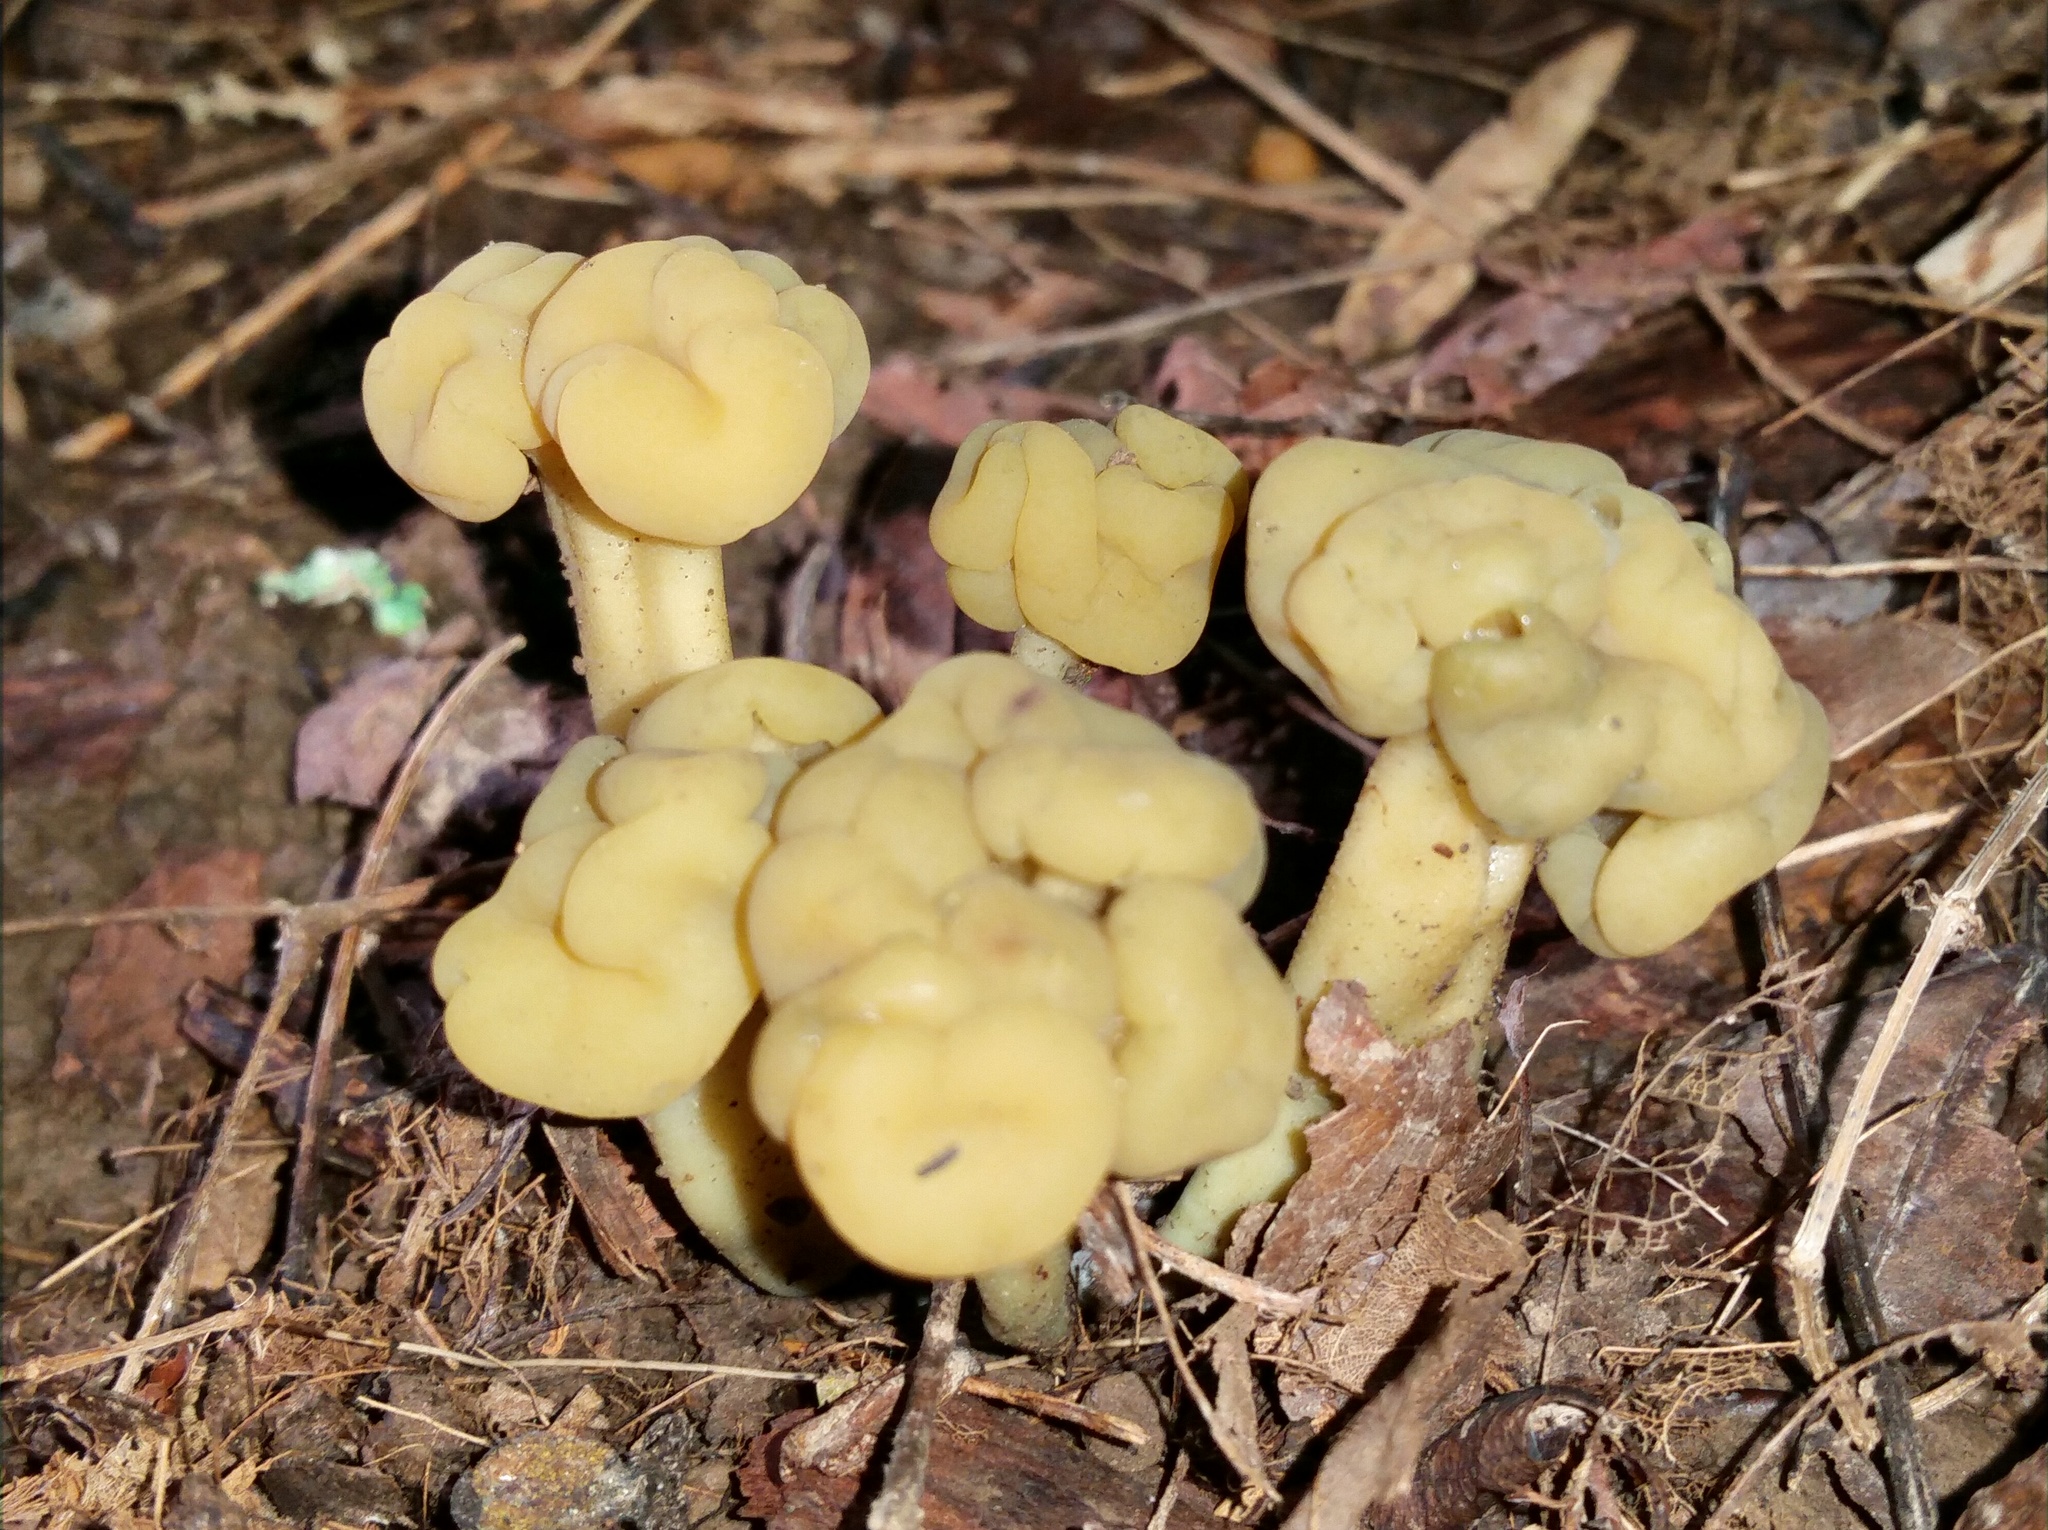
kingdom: Fungi
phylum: Ascomycota
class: Leotiomycetes
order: Leotiales
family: Leotiaceae
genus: Leotia
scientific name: Leotia lubrica
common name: Jellybaby
